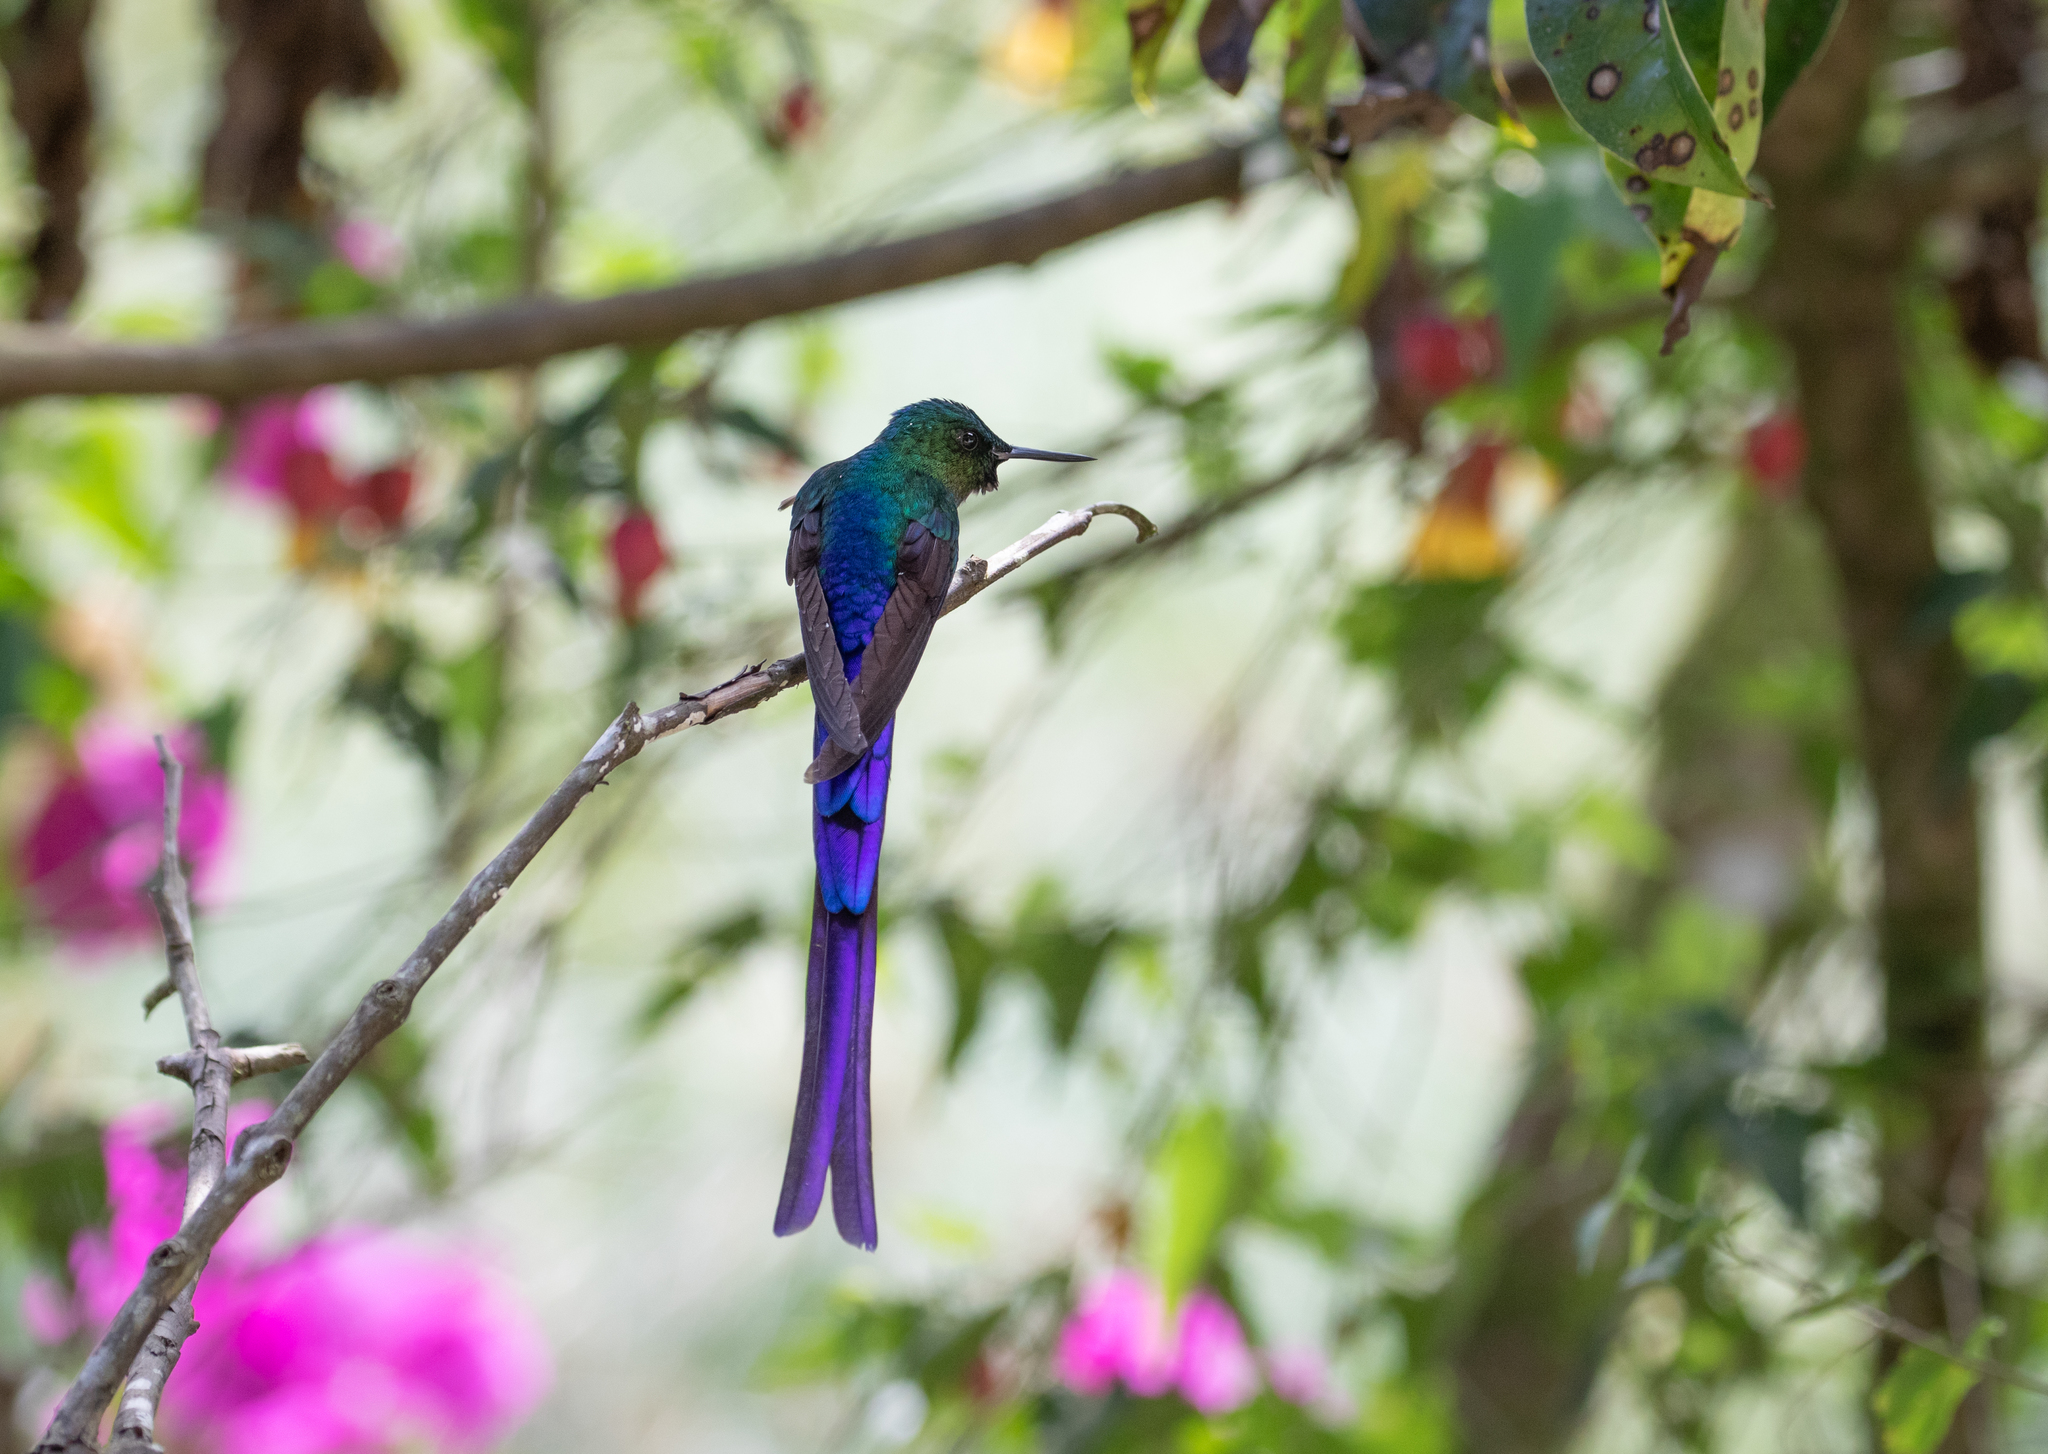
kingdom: Animalia
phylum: Chordata
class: Aves
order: Apodiformes
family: Trochilidae
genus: Aglaiocercus
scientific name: Aglaiocercus coelestis
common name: Violet-tailed sylph
